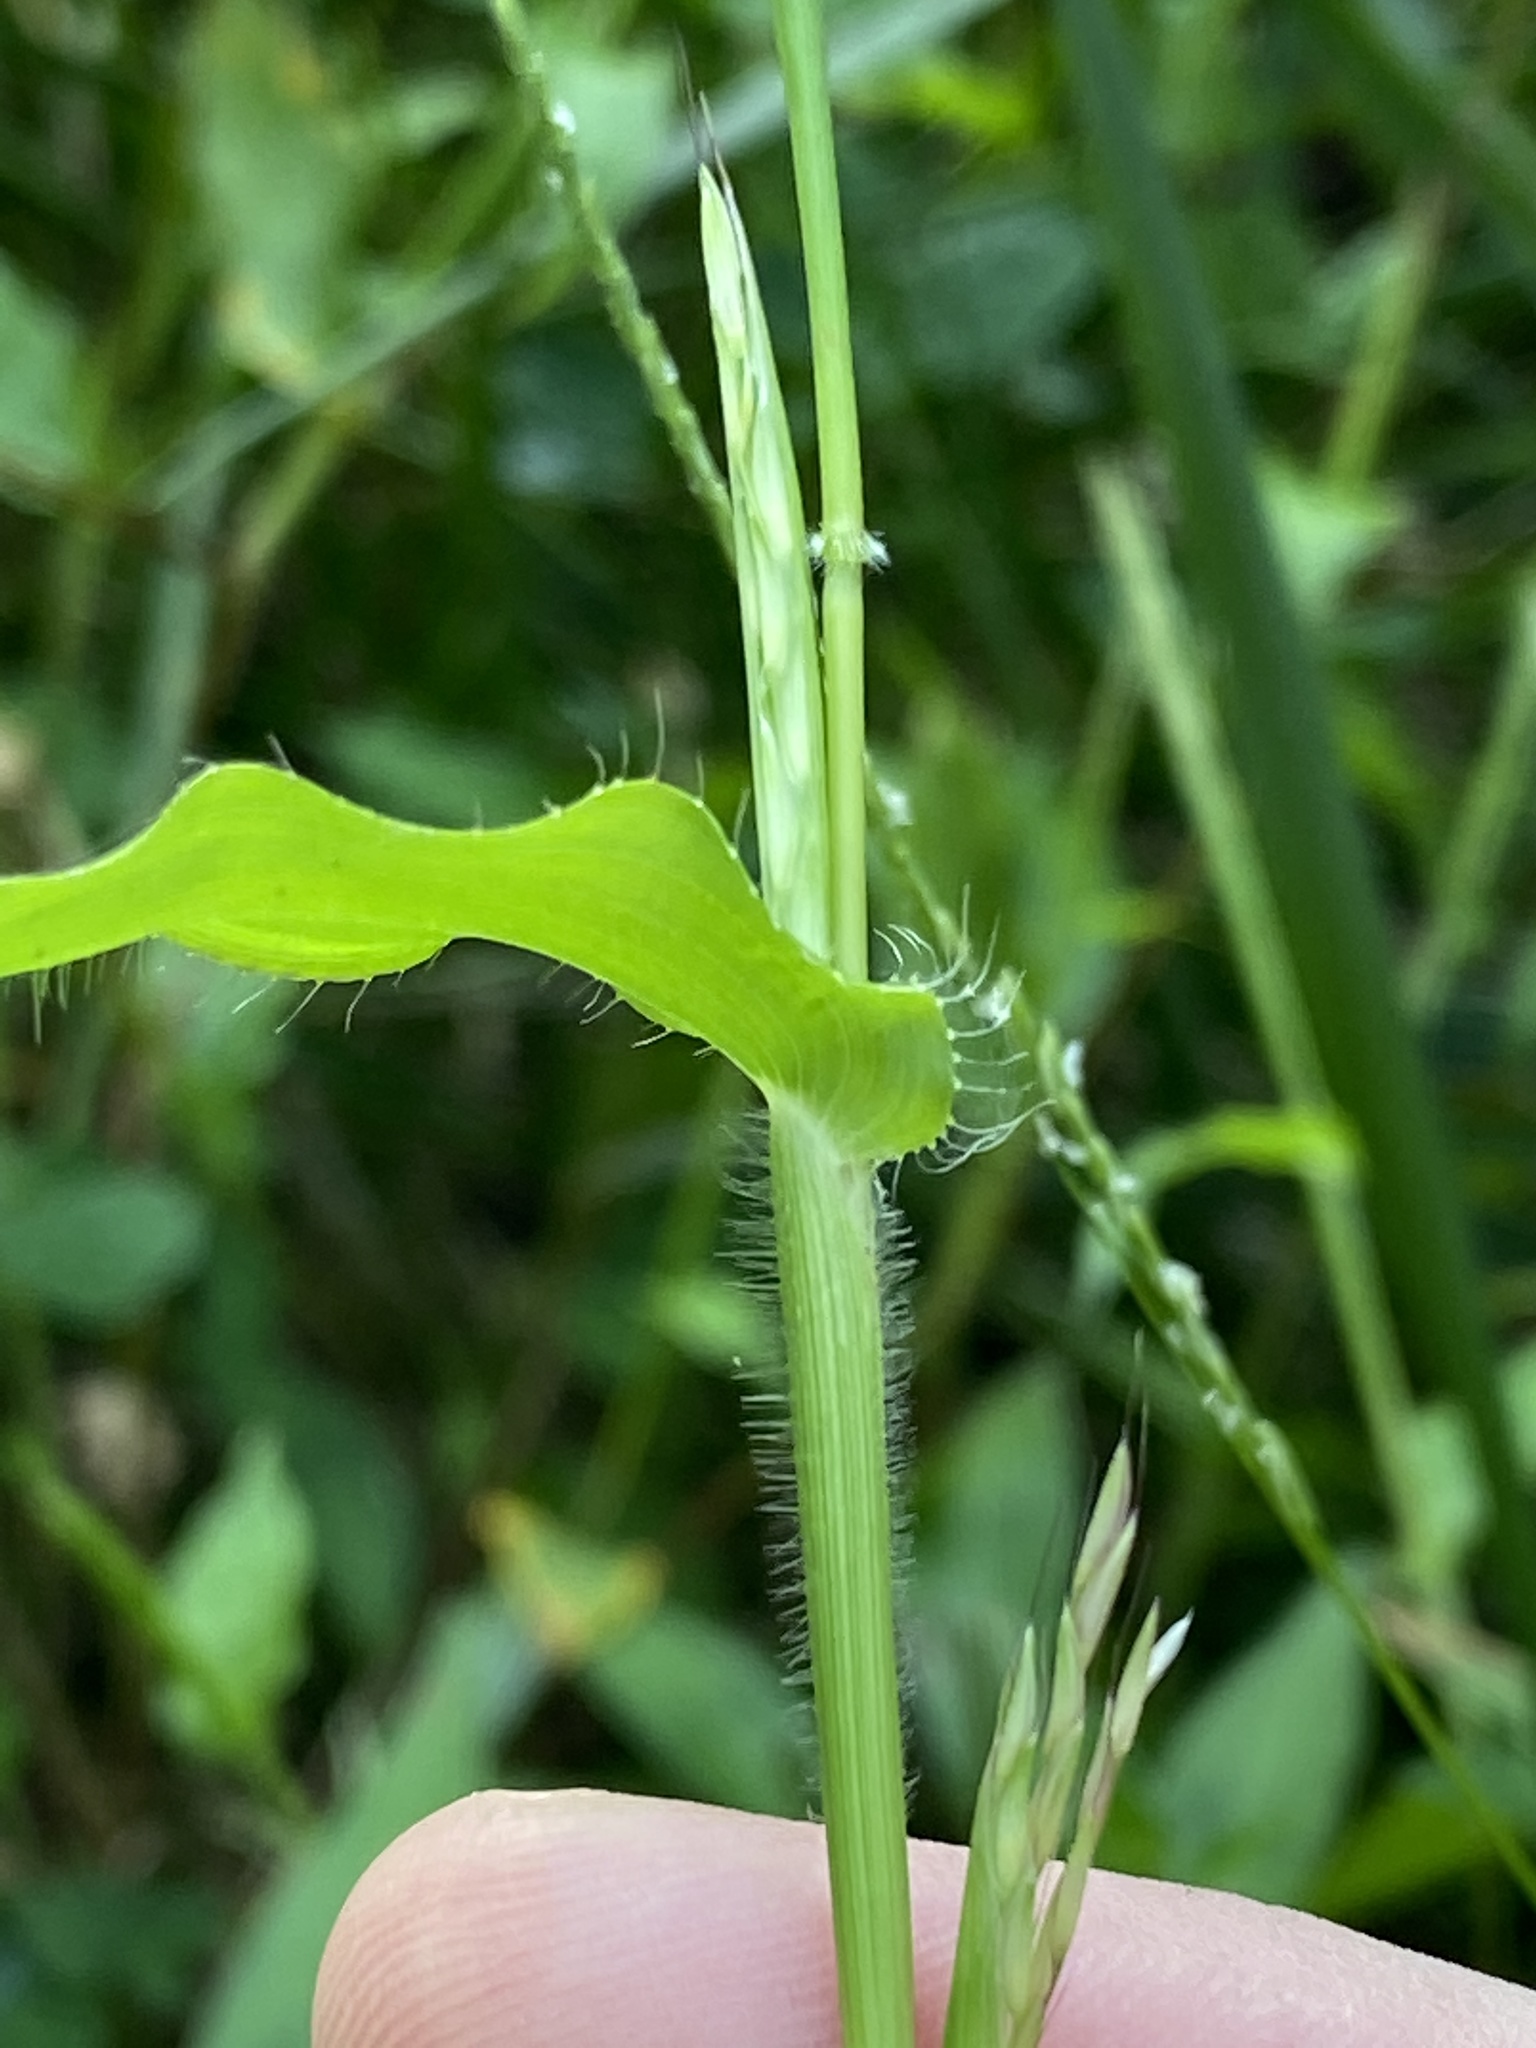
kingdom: Plantae
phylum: Tracheophyta
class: Liliopsida
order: Poales
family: Poaceae
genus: Arthraxon
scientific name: Arthraxon hispidus
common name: Small carpgrass
